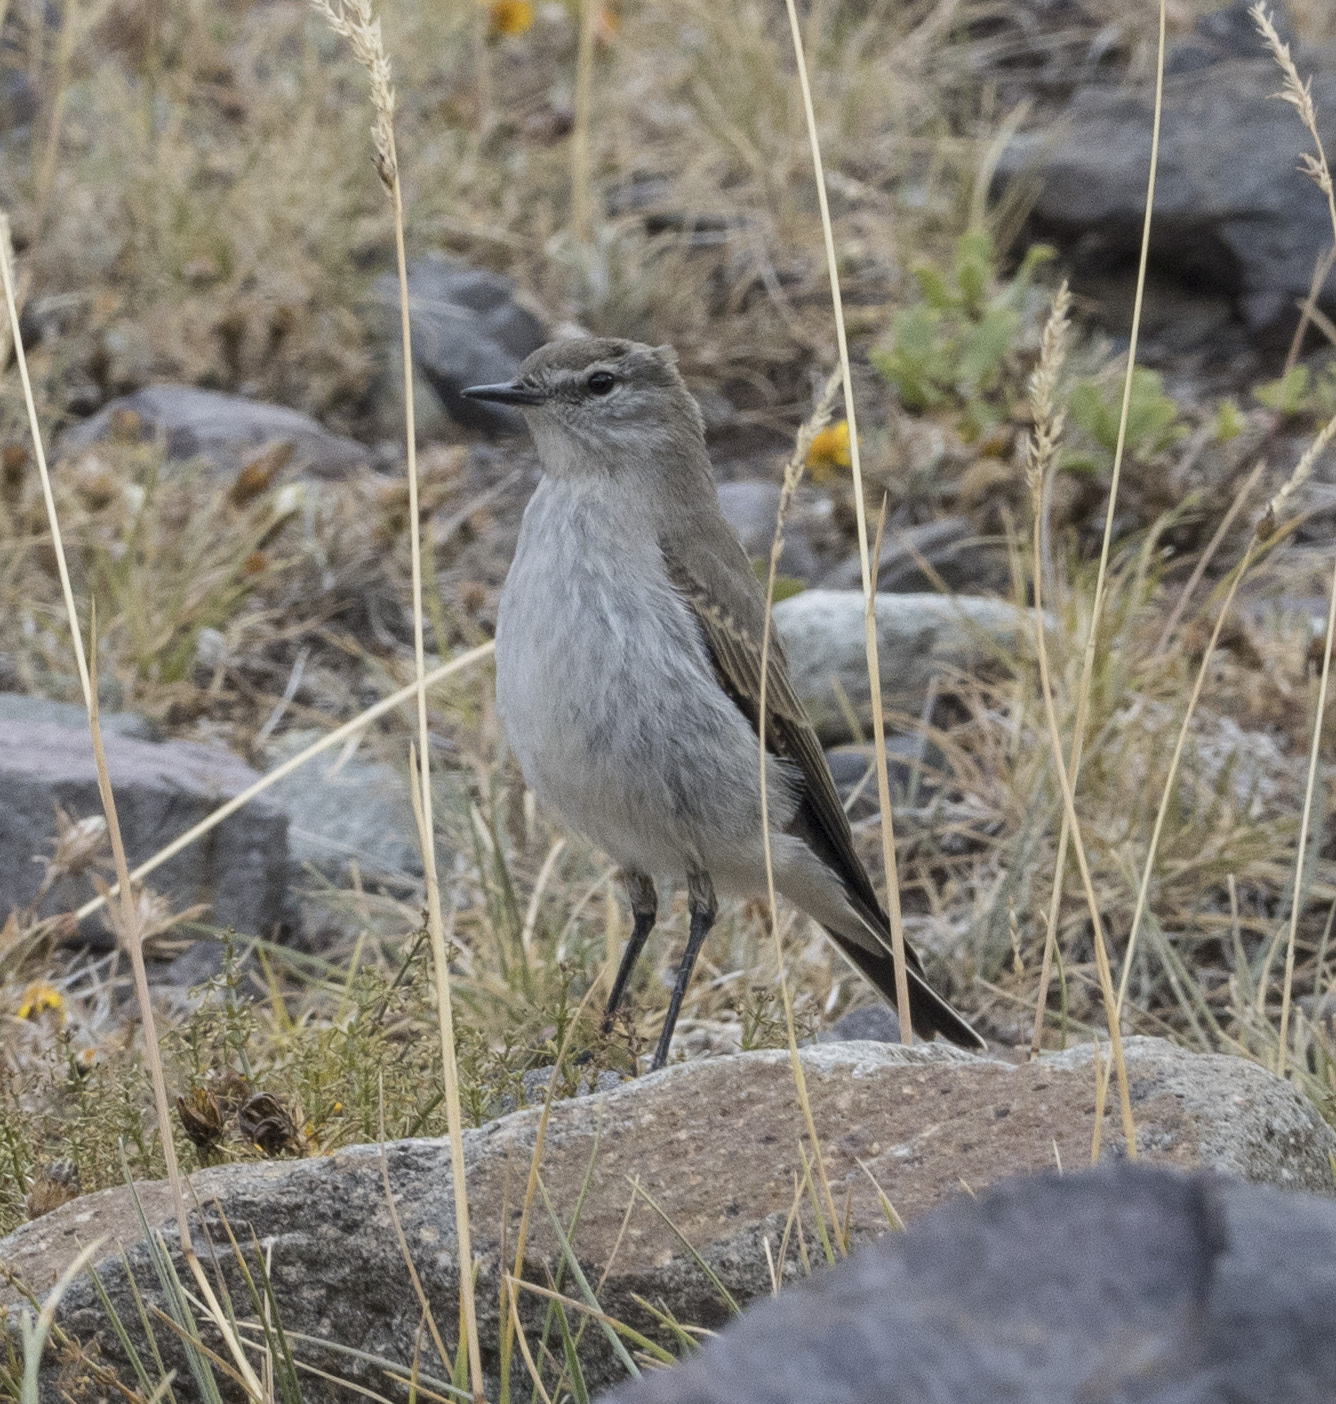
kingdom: Animalia
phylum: Chordata
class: Aves
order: Passeriformes
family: Tyrannidae
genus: Muscisaxicola
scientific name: Muscisaxicola albilora
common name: White-browed ground tyrant
